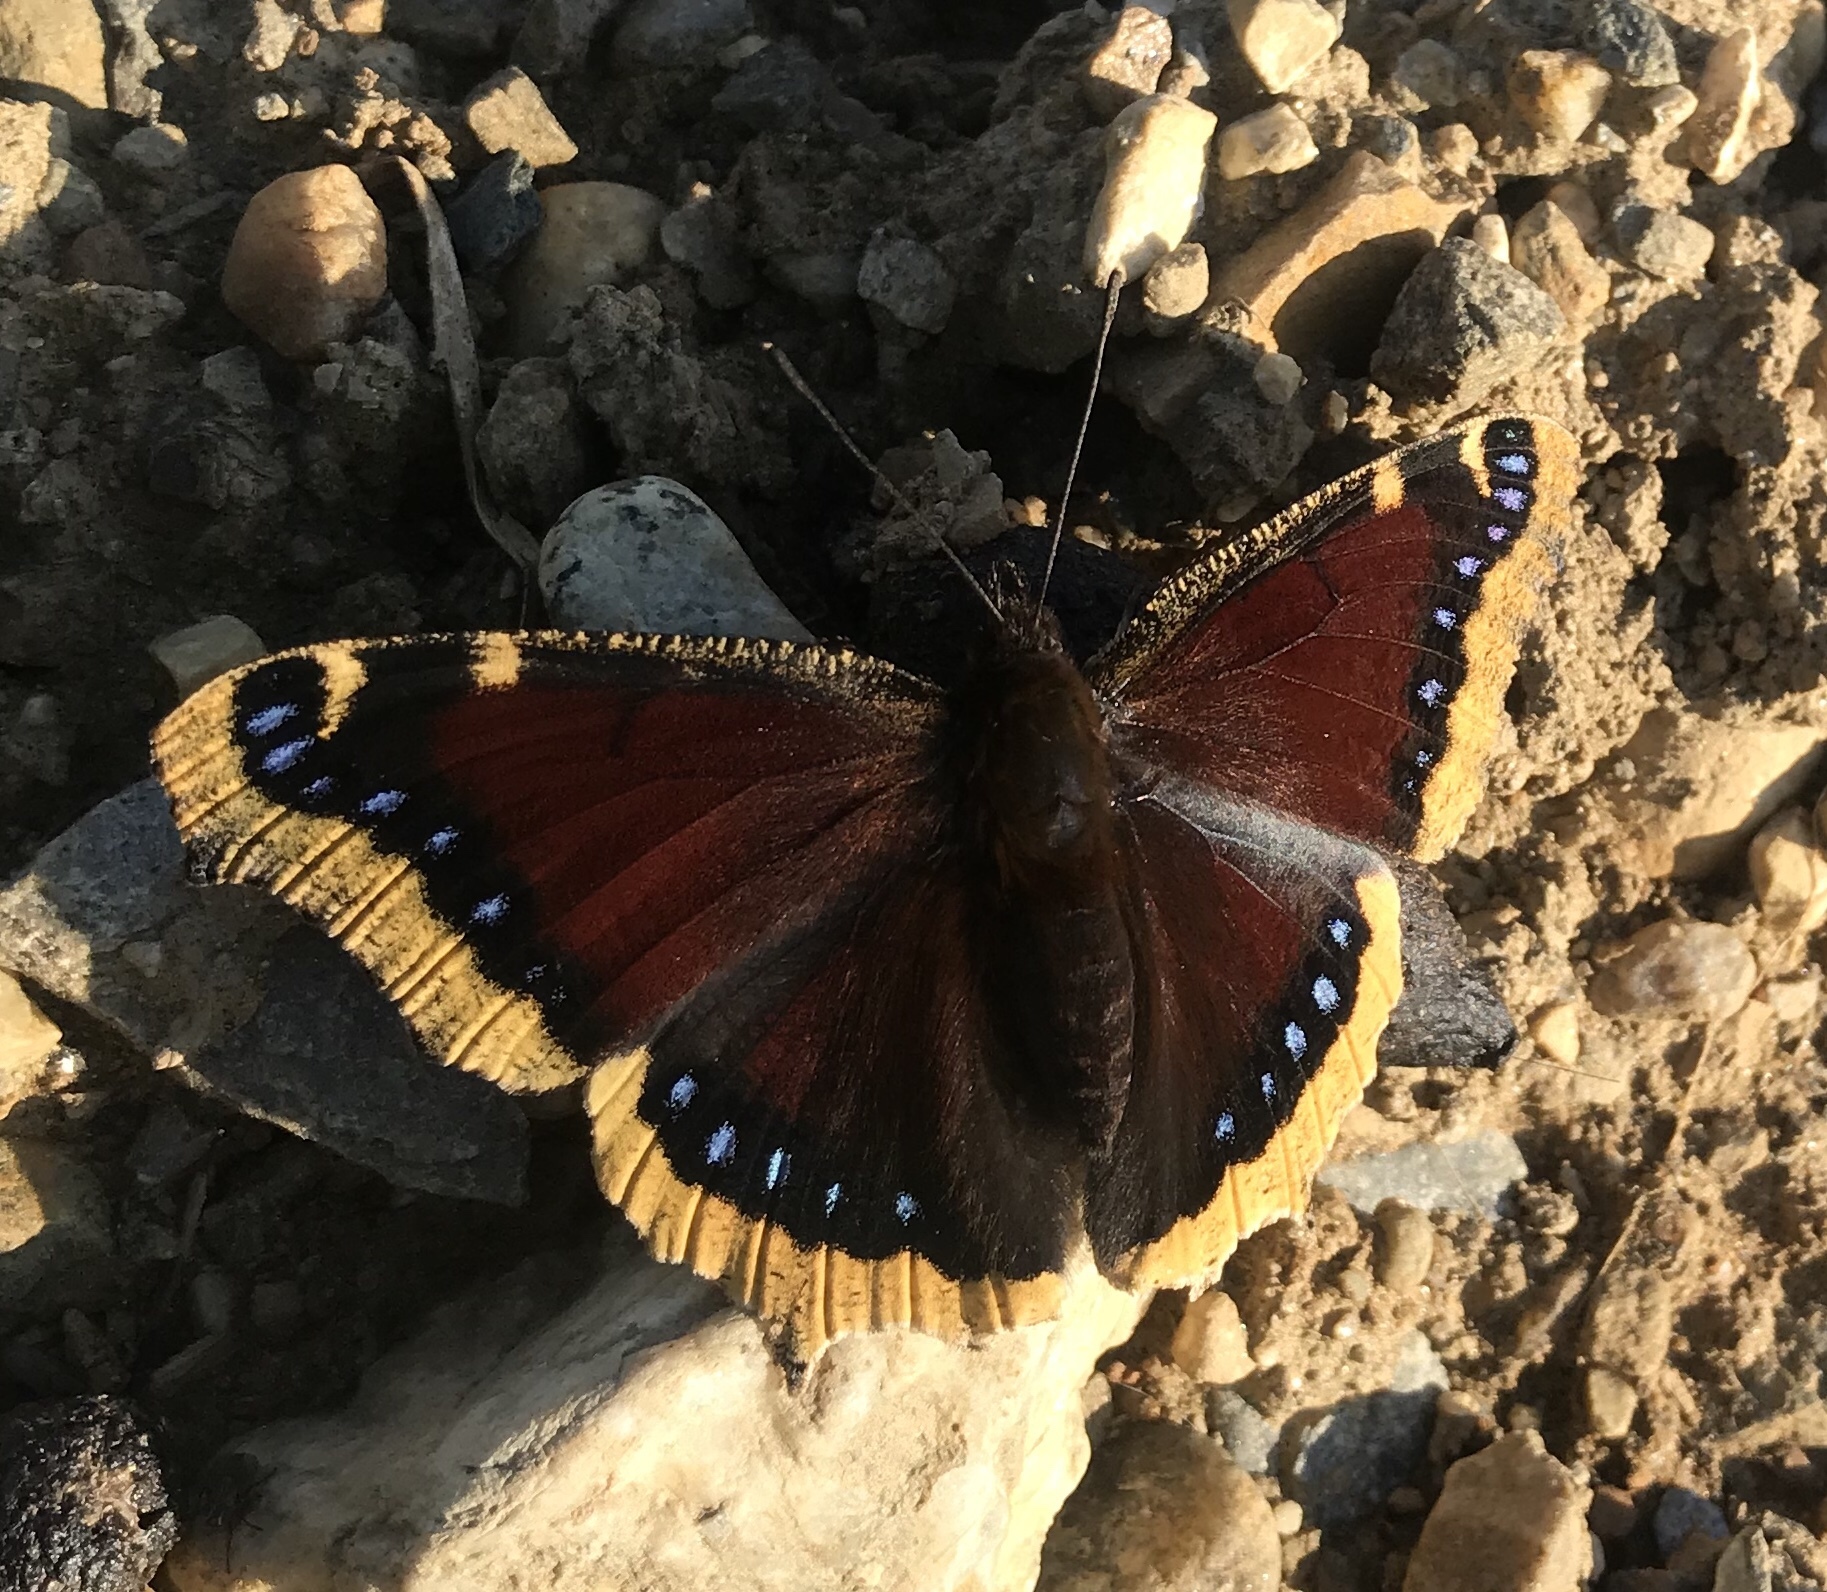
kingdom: Animalia
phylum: Arthropoda
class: Insecta
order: Lepidoptera
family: Nymphalidae
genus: Nymphalis
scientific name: Nymphalis antiopa
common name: Camberwell beauty
